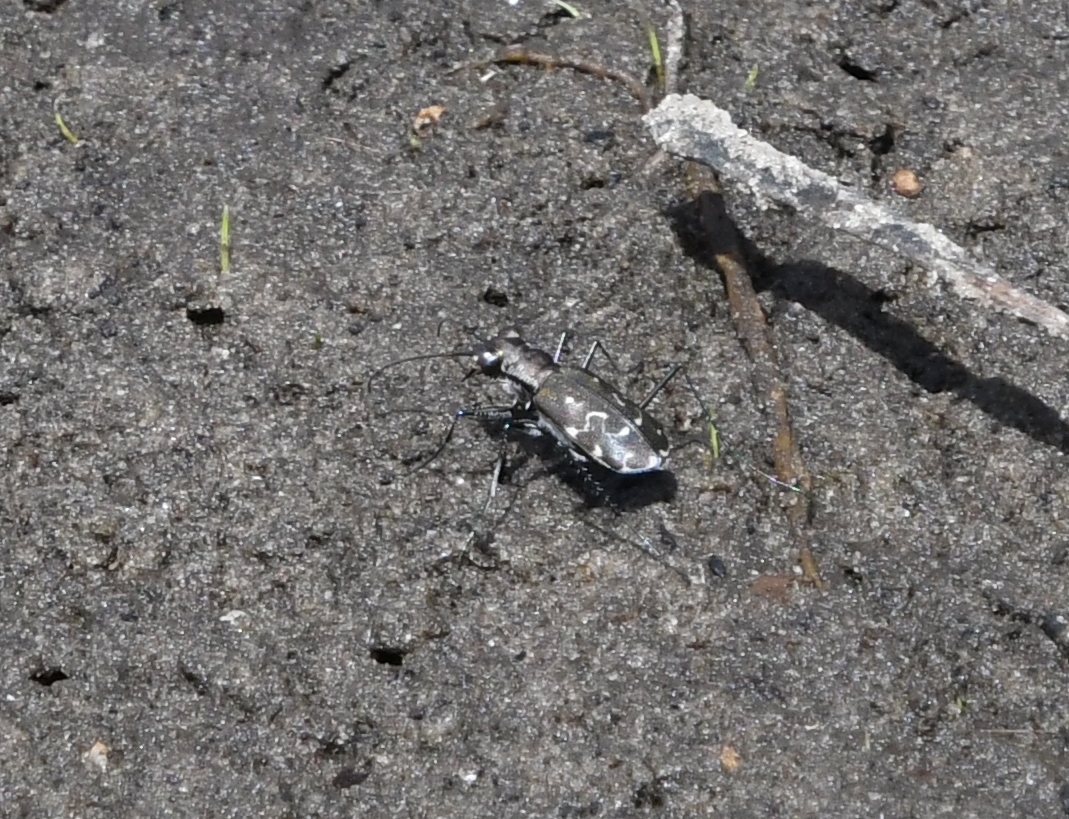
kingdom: Animalia
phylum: Arthropoda
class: Insecta
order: Coleoptera
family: Carabidae
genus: Cicindela
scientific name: Cicindela trifasciata
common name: Mudflat tiger beetle
